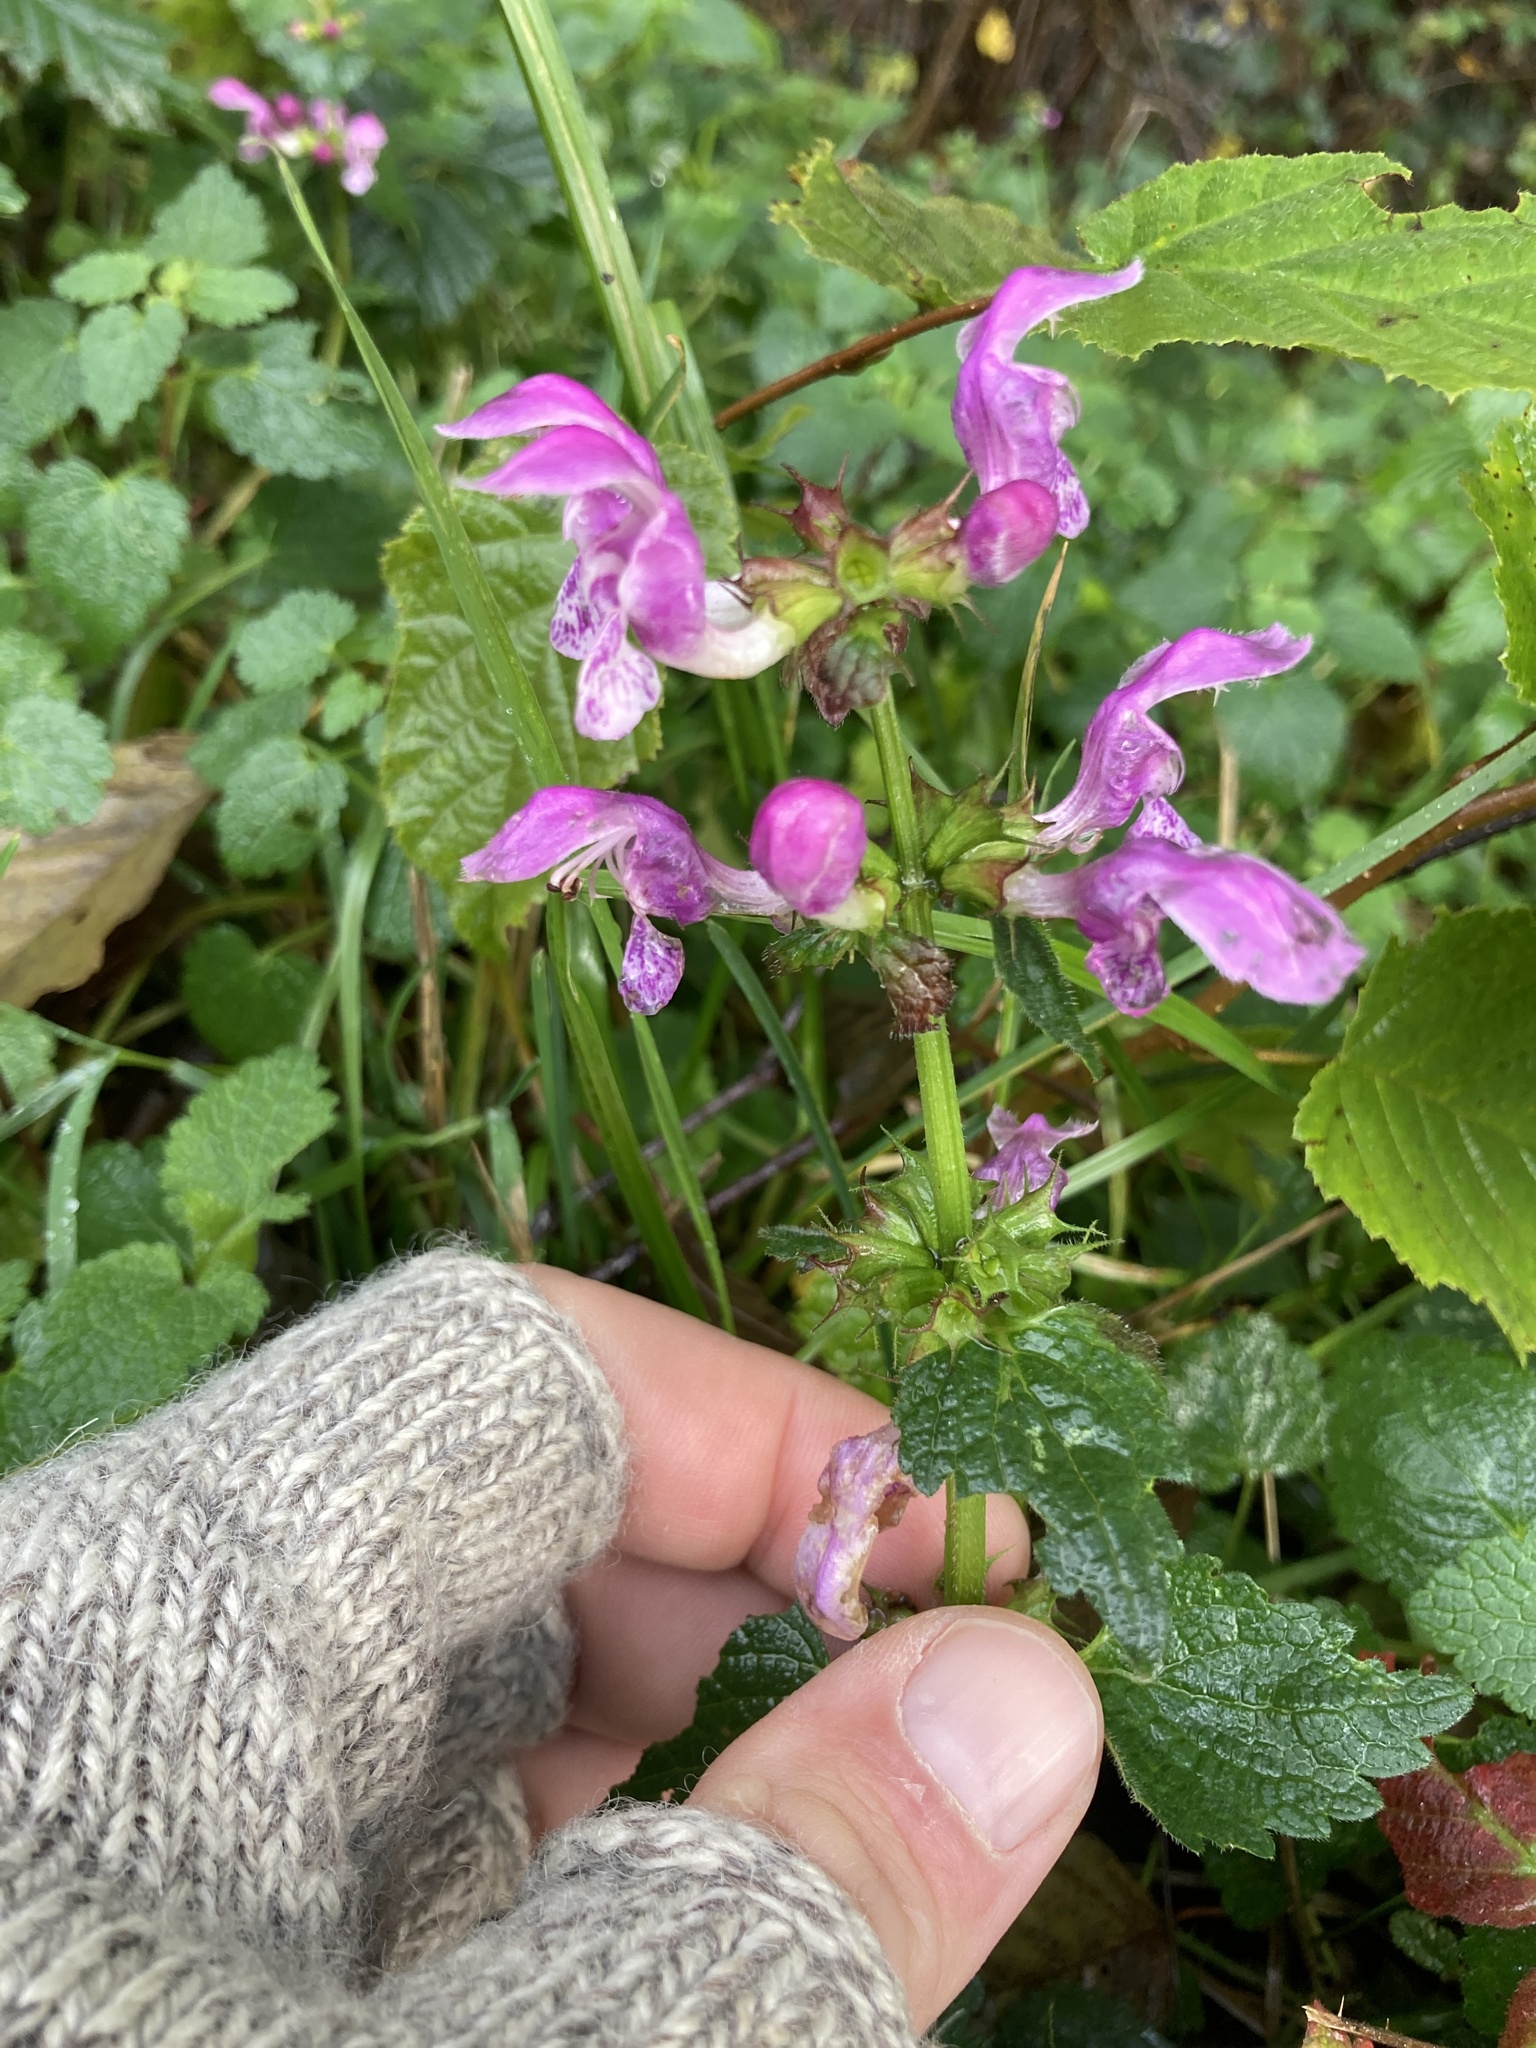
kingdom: Plantae
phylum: Tracheophyta
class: Magnoliopsida
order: Lamiales
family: Lamiaceae
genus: Lamium
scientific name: Lamium maculatum
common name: Spotted dead-nettle
